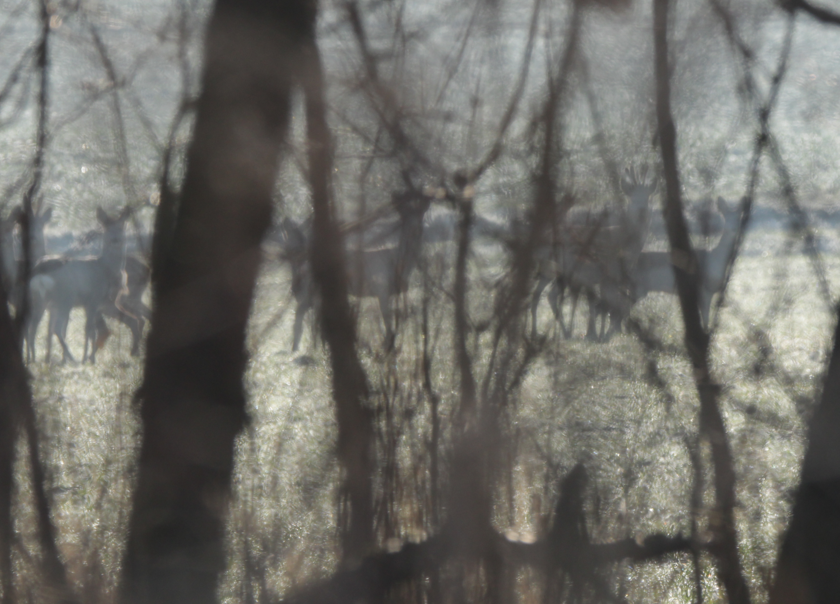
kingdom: Animalia
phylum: Chordata
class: Mammalia
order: Artiodactyla
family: Cervidae
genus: Capreolus
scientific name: Capreolus capreolus
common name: Western roe deer
